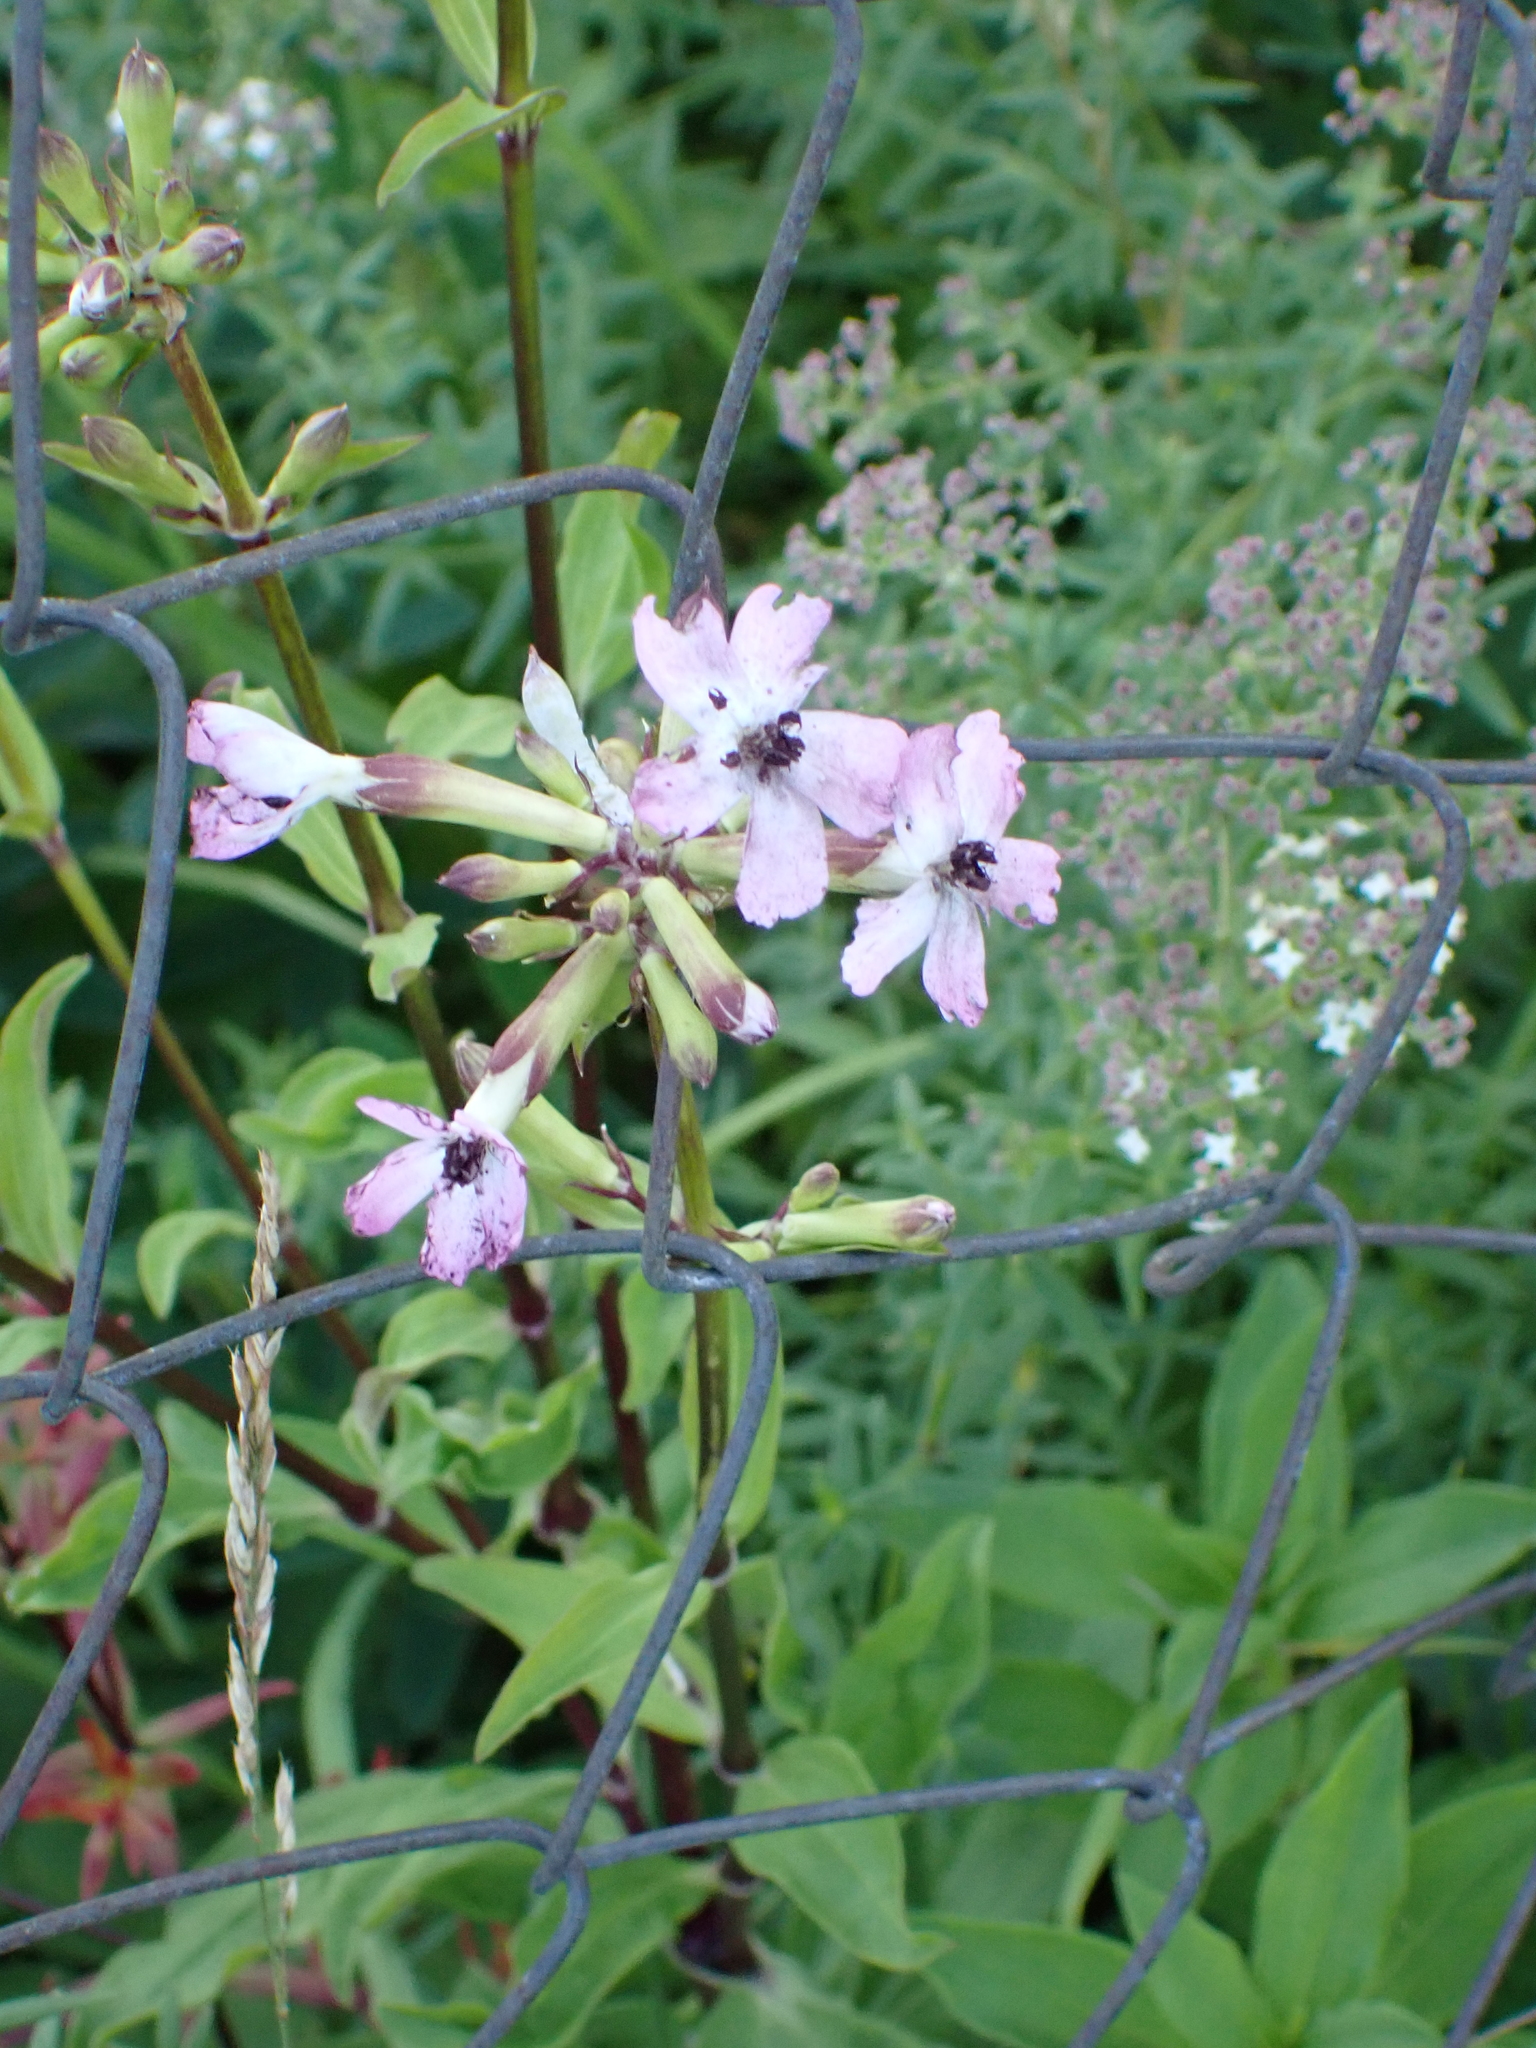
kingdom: Plantae
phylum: Tracheophyta
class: Magnoliopsida
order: Caryophyllales
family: Caryophyllaceae
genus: Saponaria
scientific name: Saponaria officinalis
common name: Soapwort
